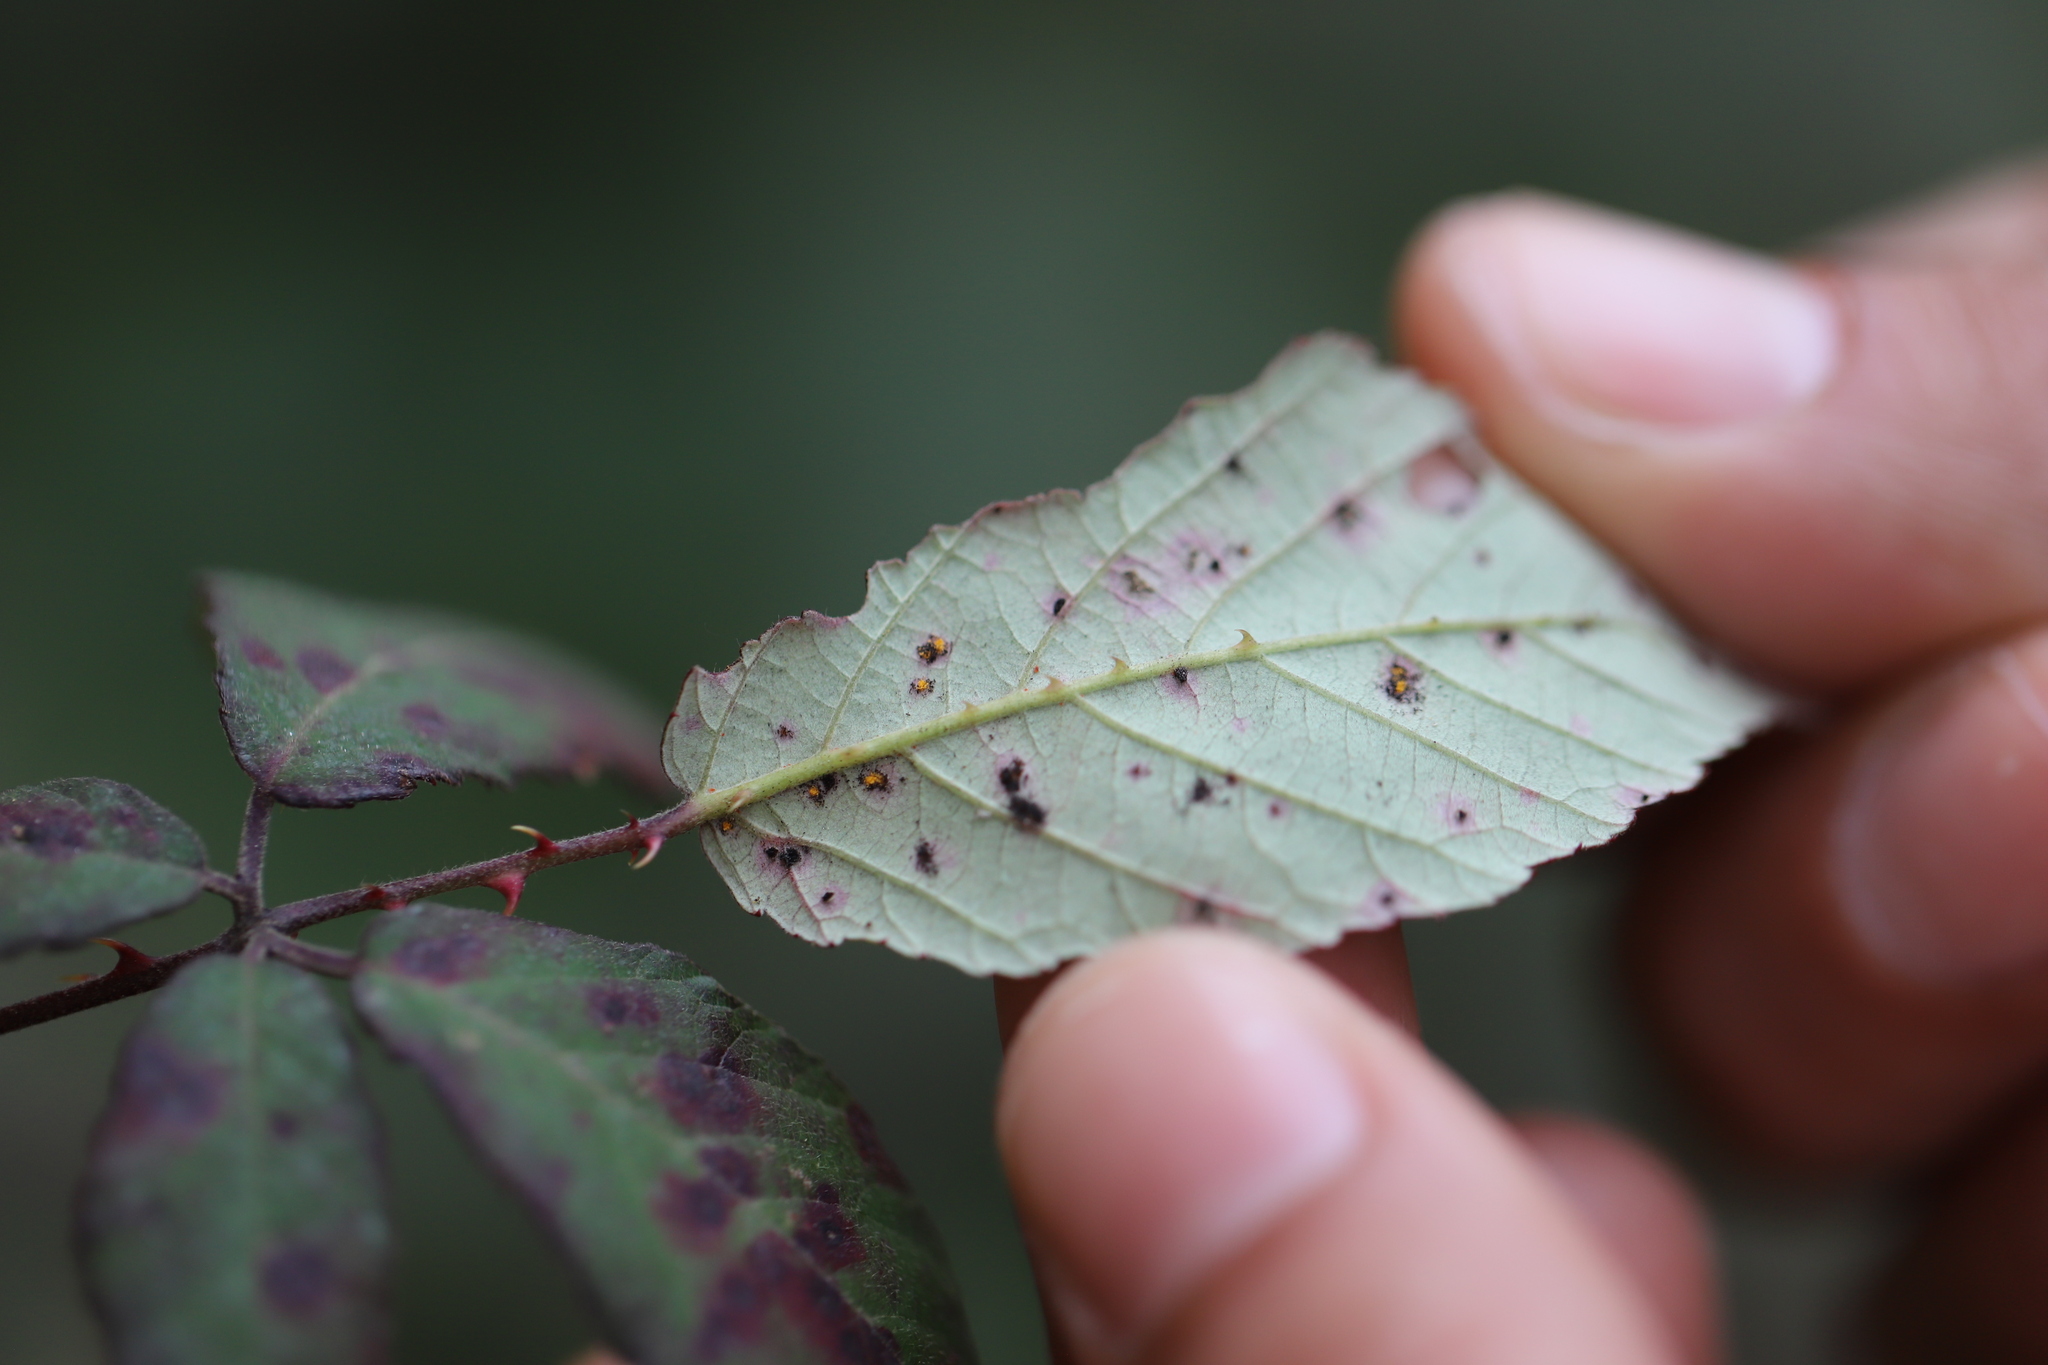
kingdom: Fungi
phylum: Basidiomycota
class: Pucciniomycetes
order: Pucciniales
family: Phragmidiaceae
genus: Phragmidium
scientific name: Phragmidium violaceum
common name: Violet bramble rust
